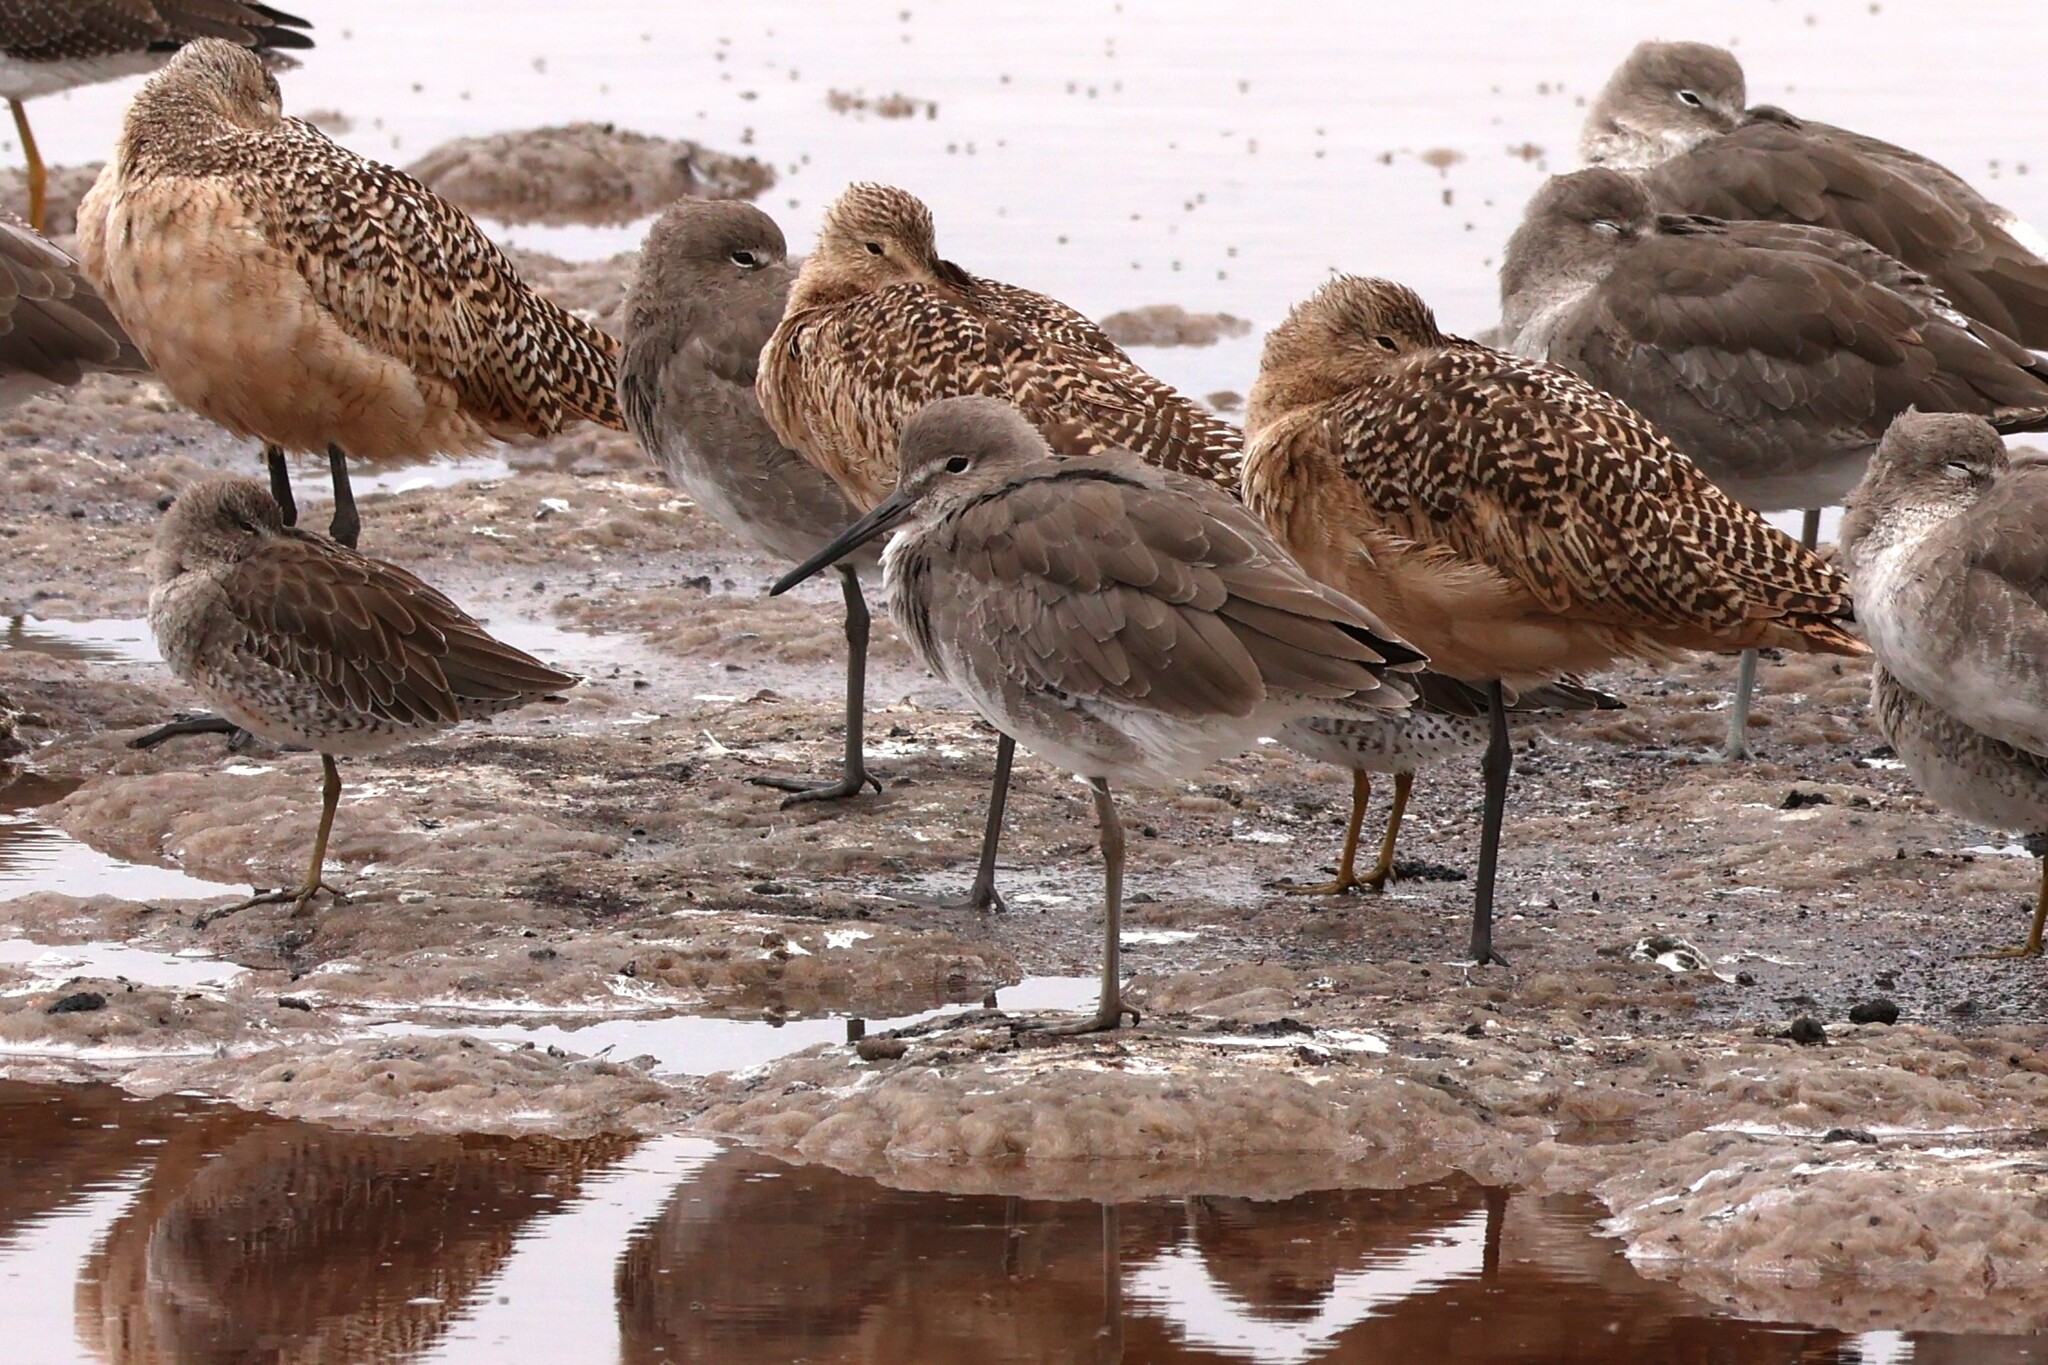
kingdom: Animalia
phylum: Chordata
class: Aves
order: Charadriiformes
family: Scolopacidae
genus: Tringa
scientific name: Tringa semipalmata
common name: Willet
